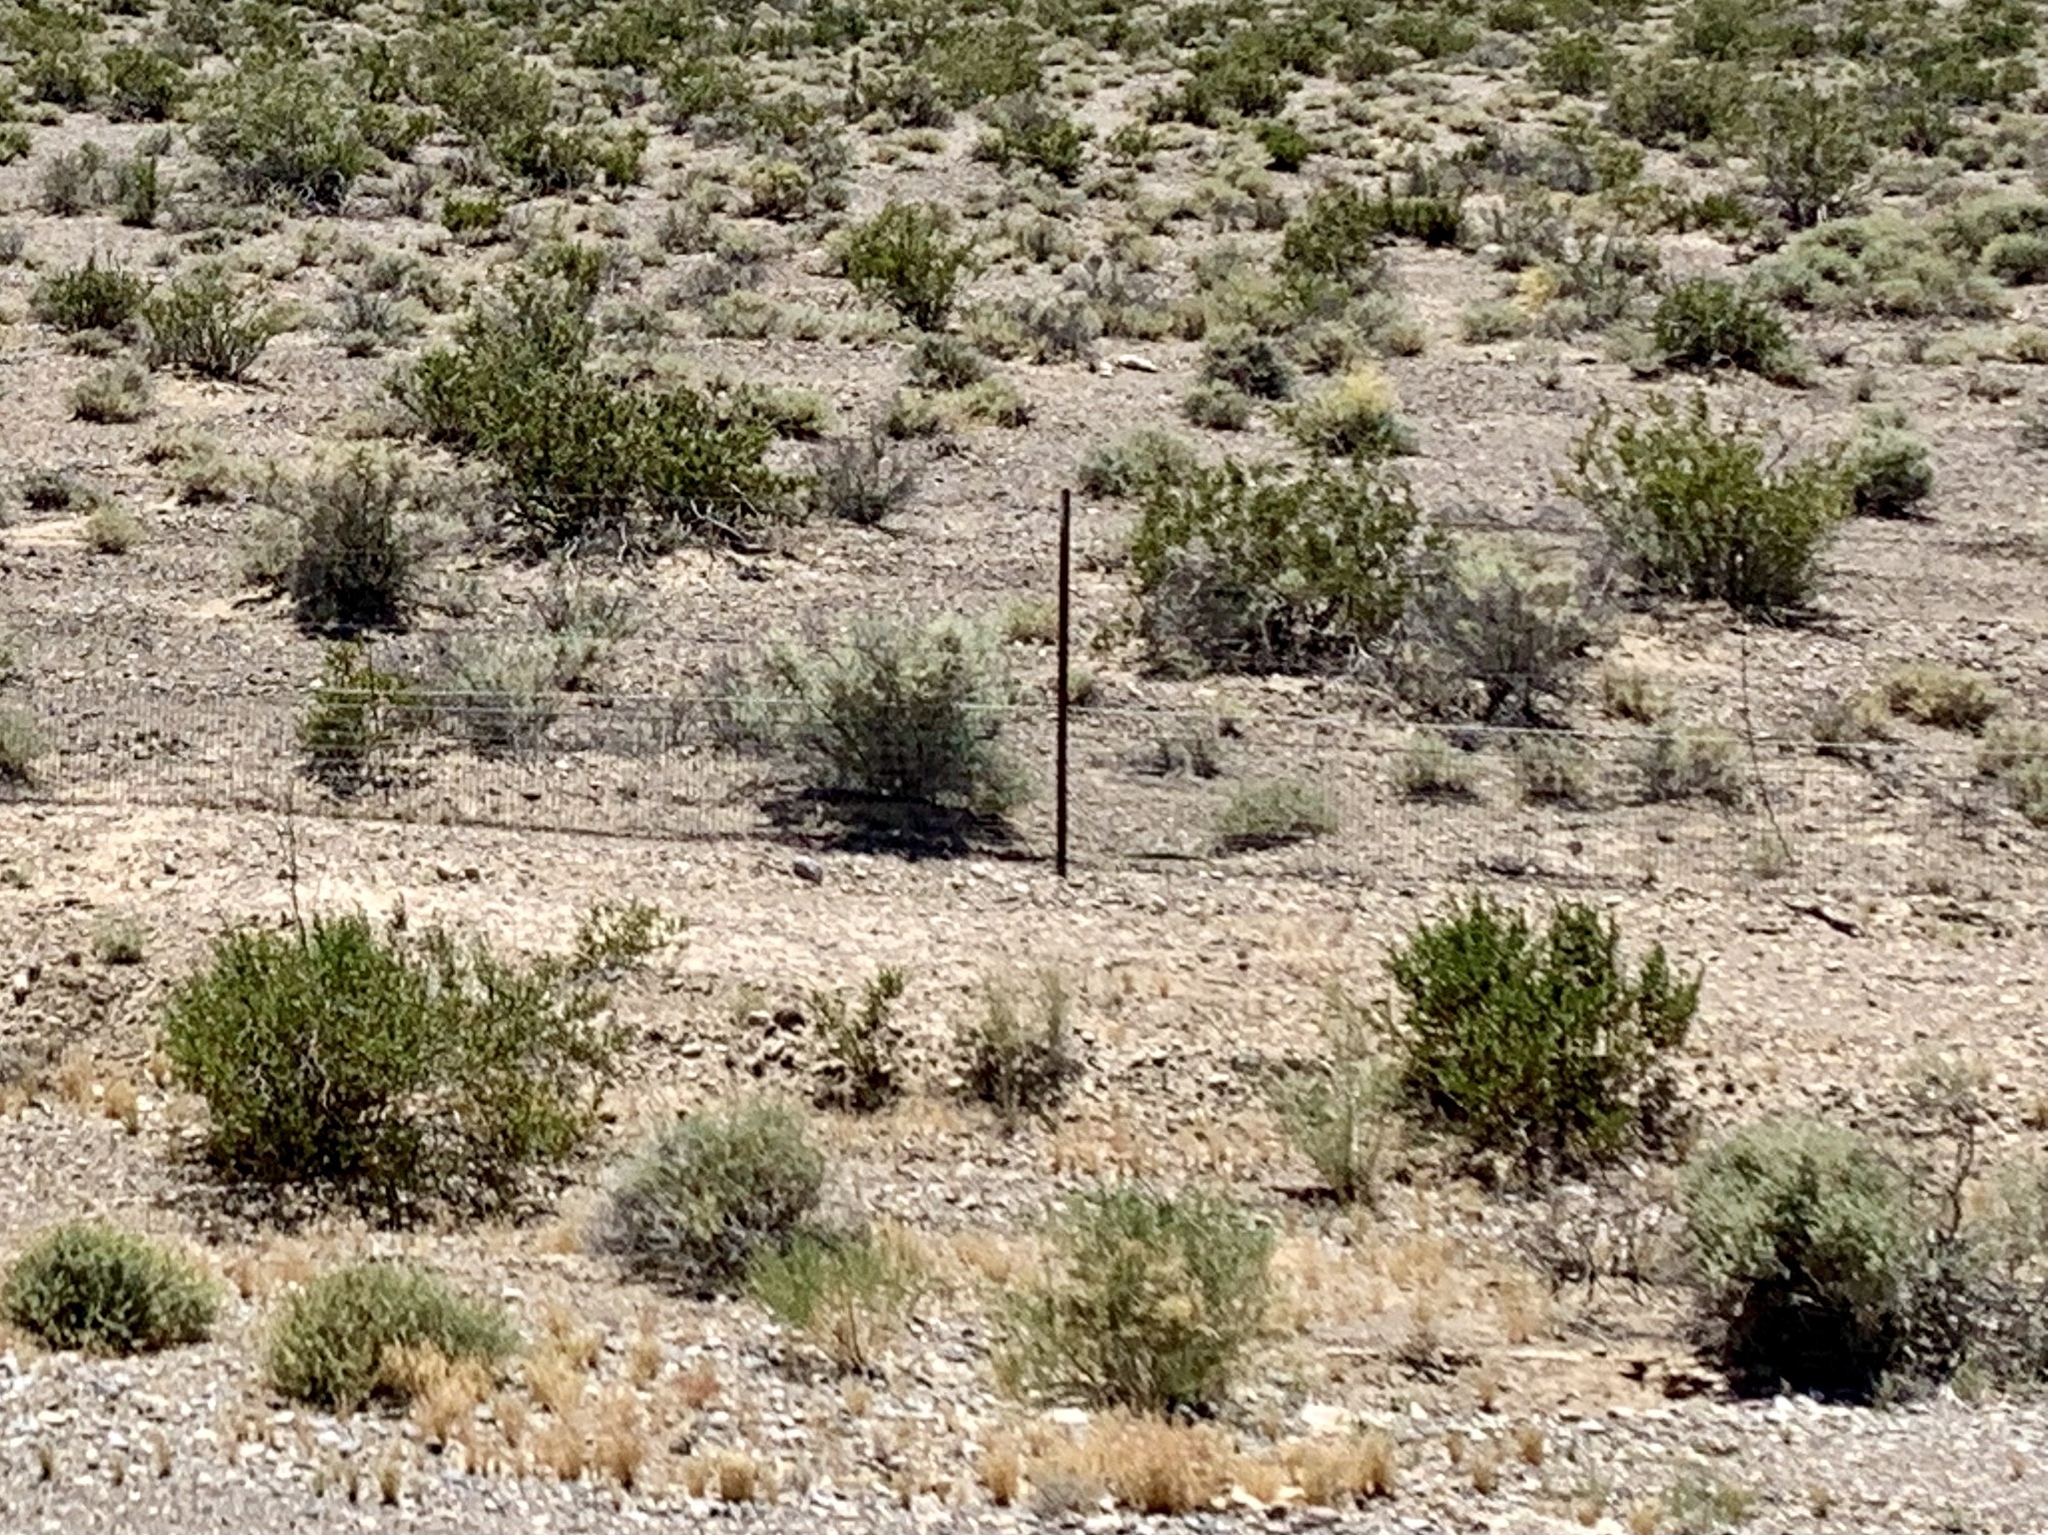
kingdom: Plantae
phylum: Tracheophyta
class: Magnoliopsida
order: Zygophyllales
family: Zygophyllaceae
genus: Larrea
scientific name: Larrea tridentata
